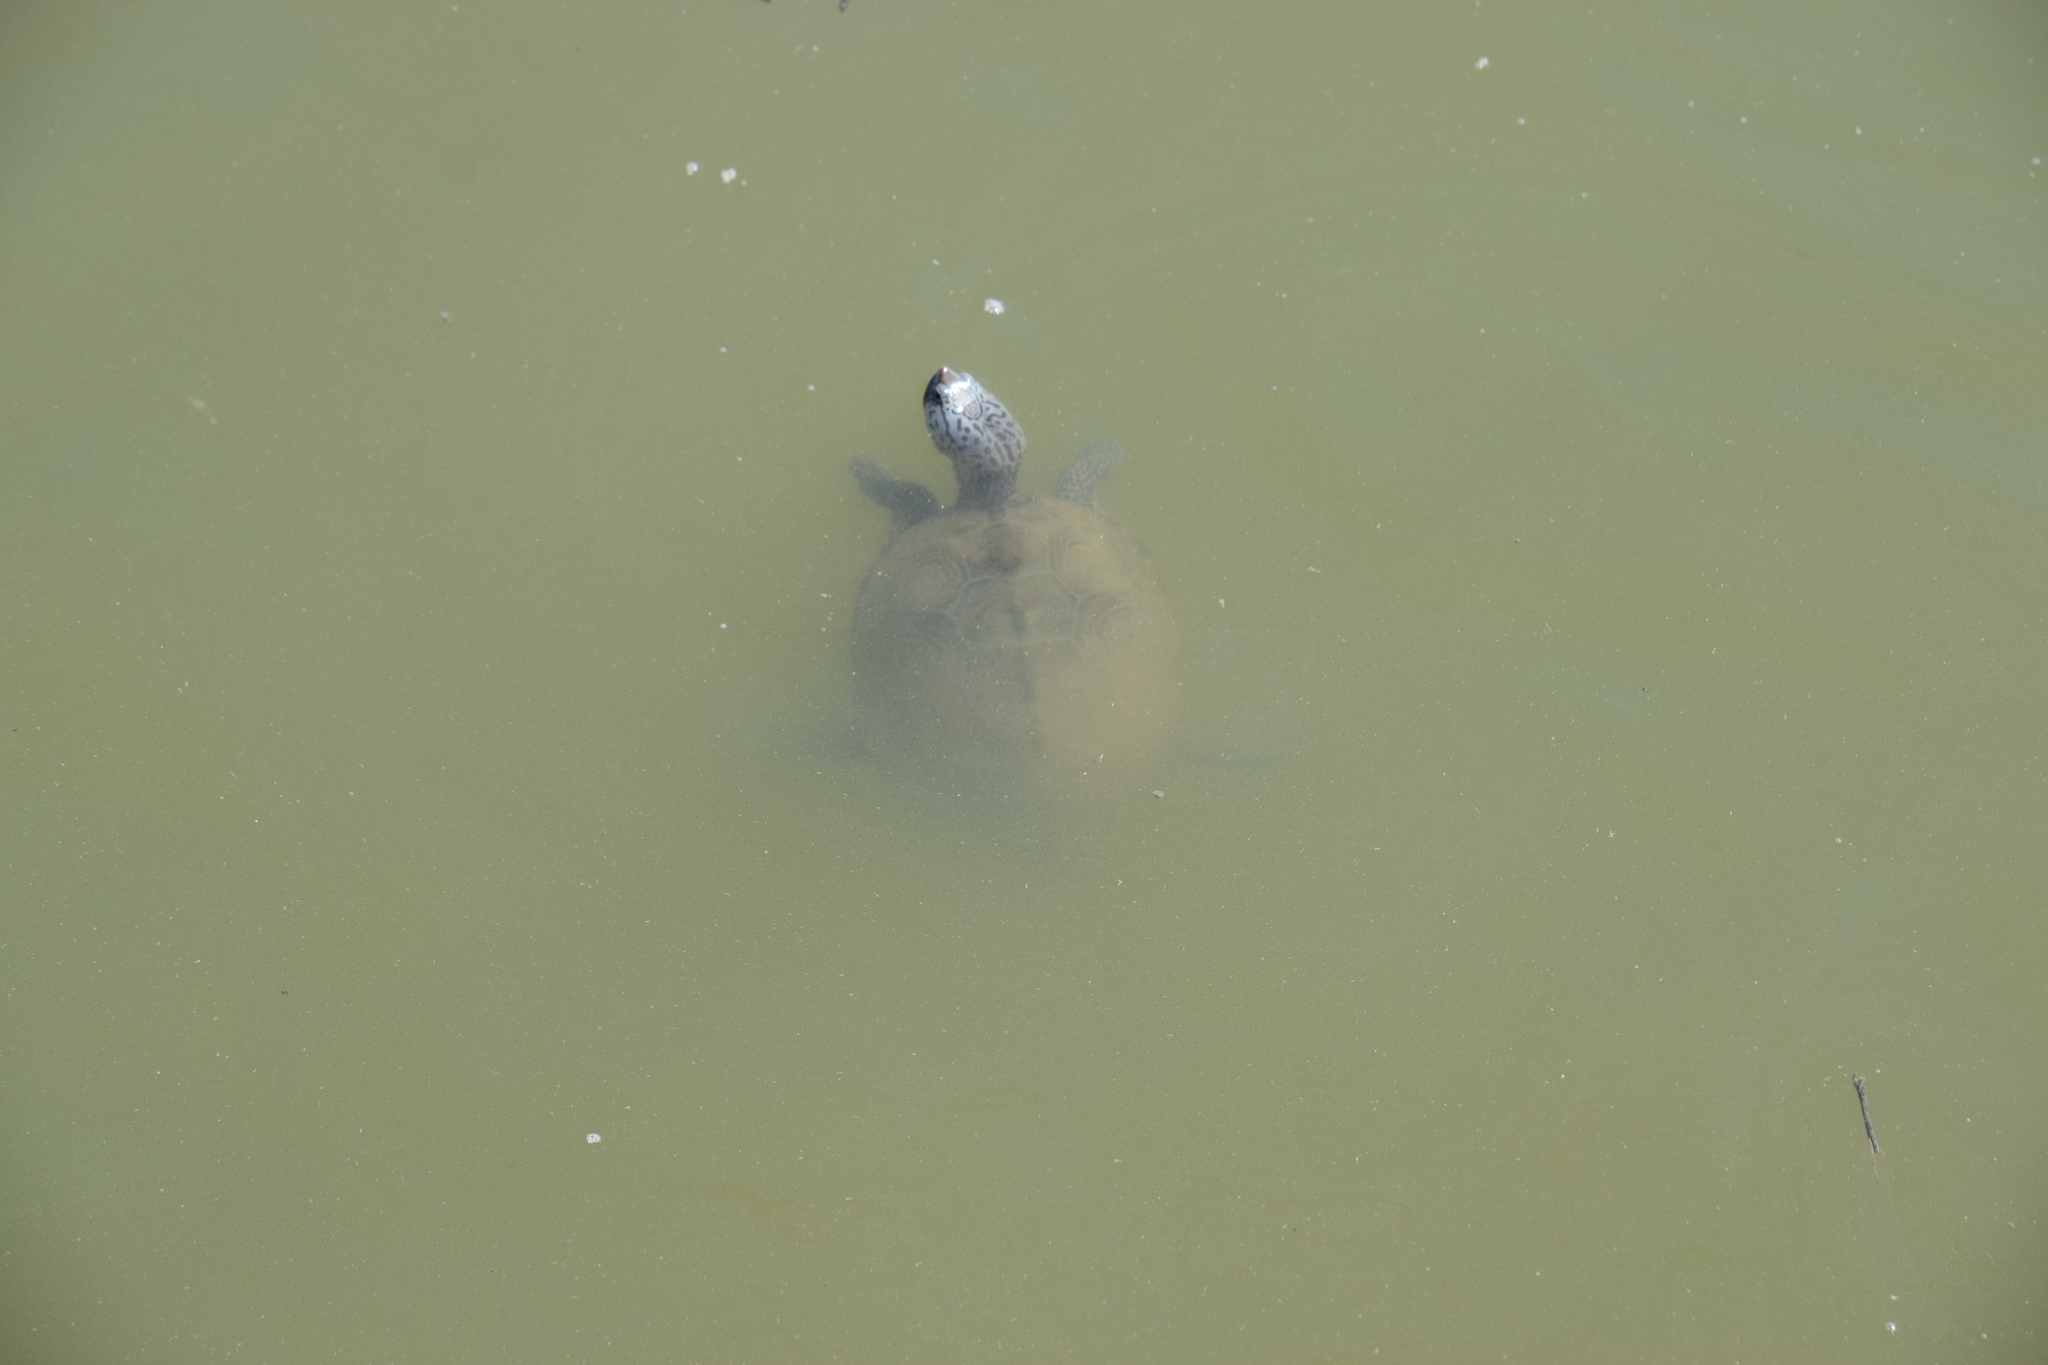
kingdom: Animalia
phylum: Chordata
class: Testudines
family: Emydidae
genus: Malaclemys
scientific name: Malaclemys terrapin
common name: Diamondback terrapin
